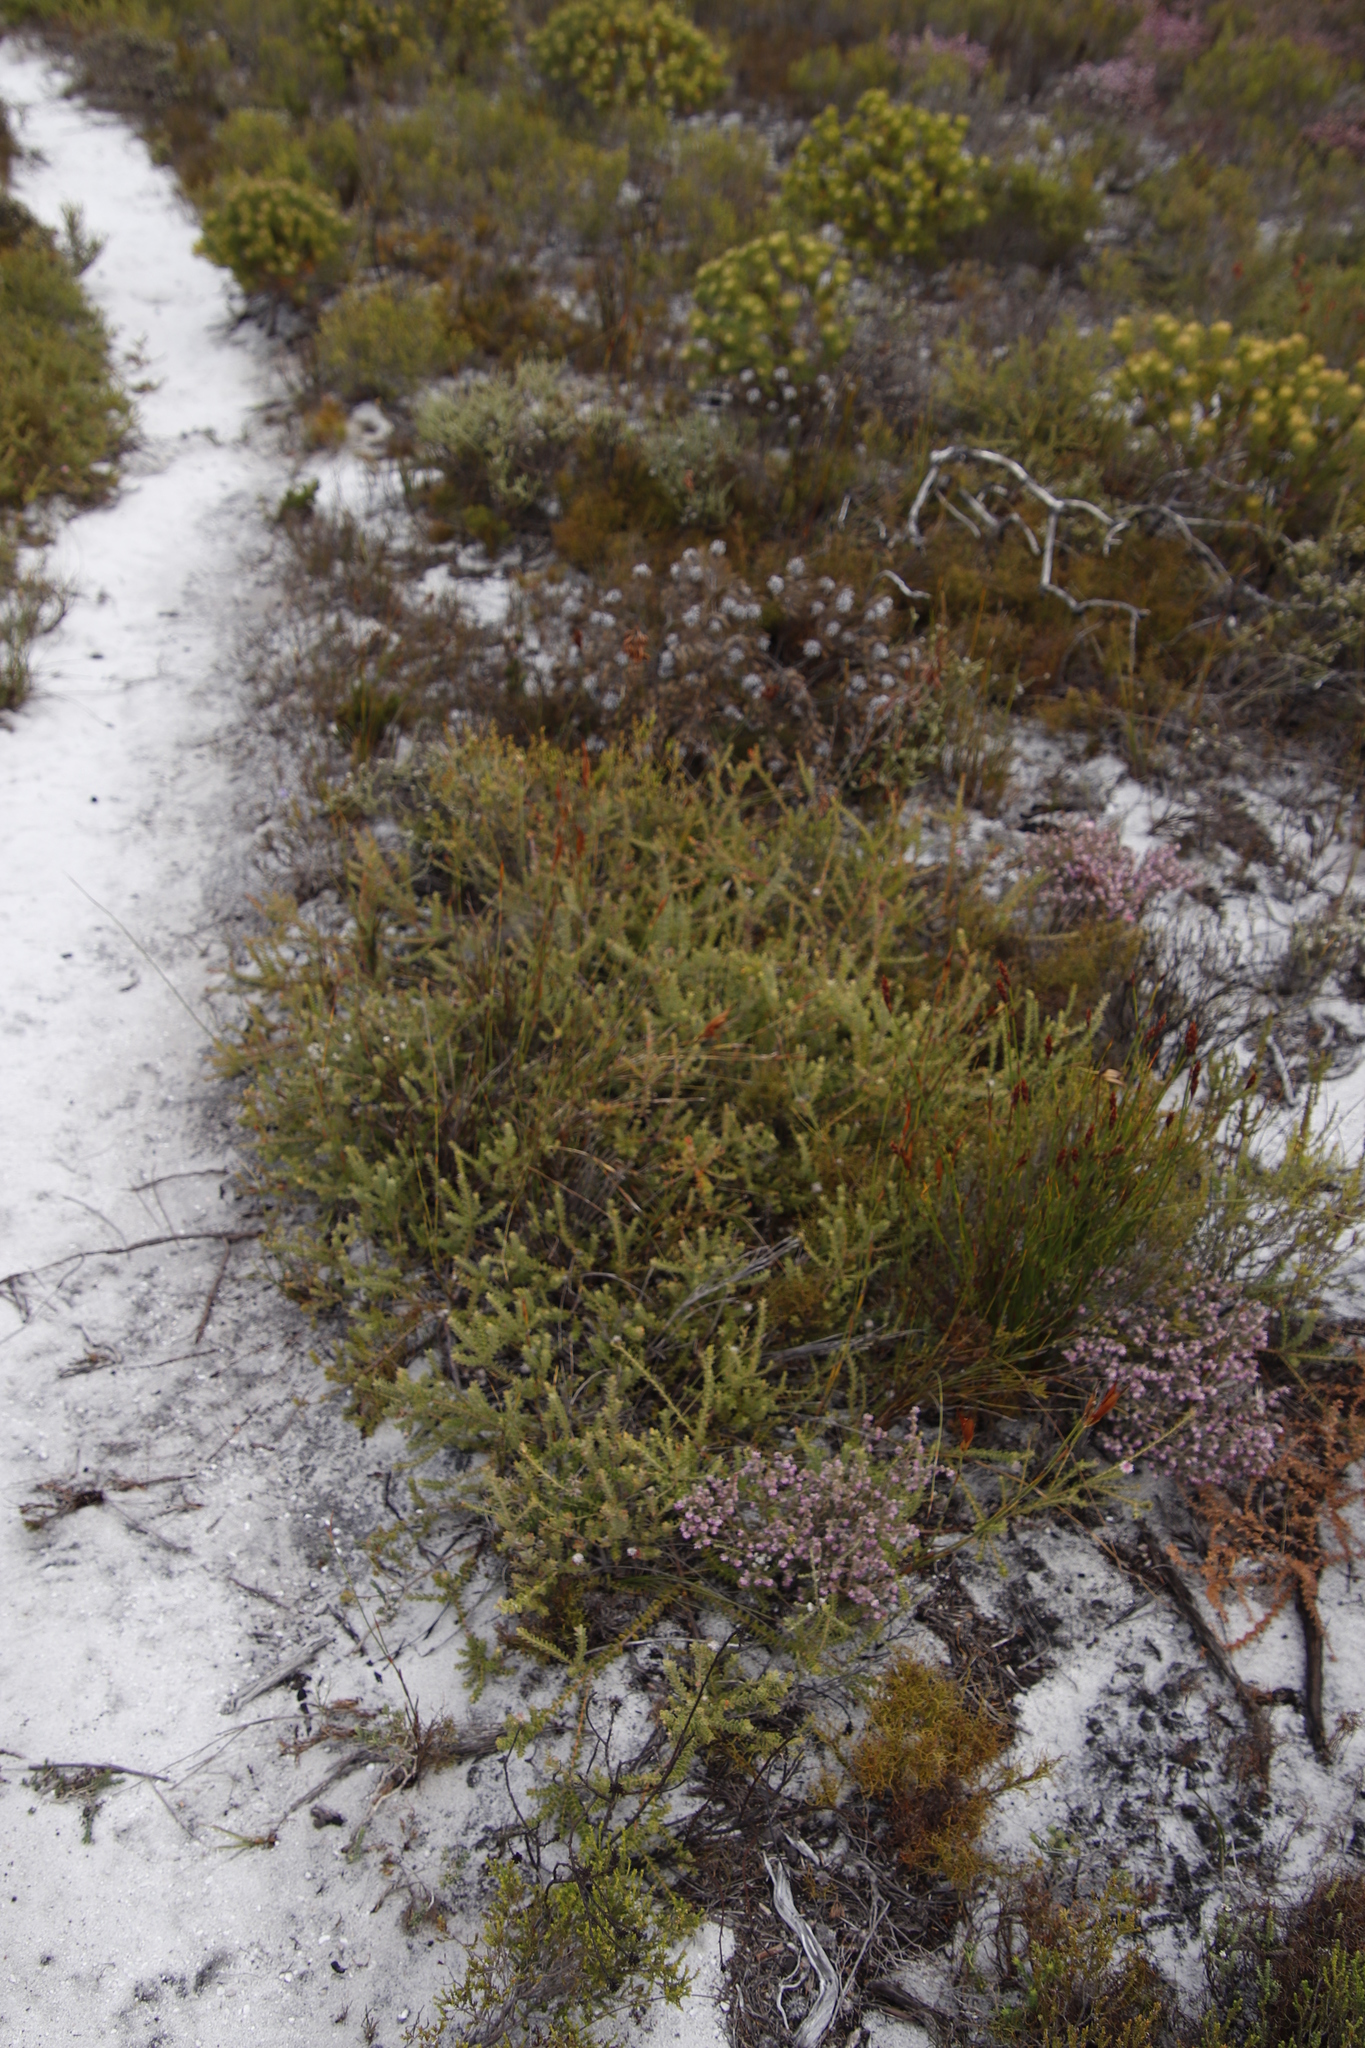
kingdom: Plantae
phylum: Tracheophyta
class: Magnoliopsida
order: Proteales
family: Proteaceae
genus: Diastella
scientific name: Diastella divaricata
